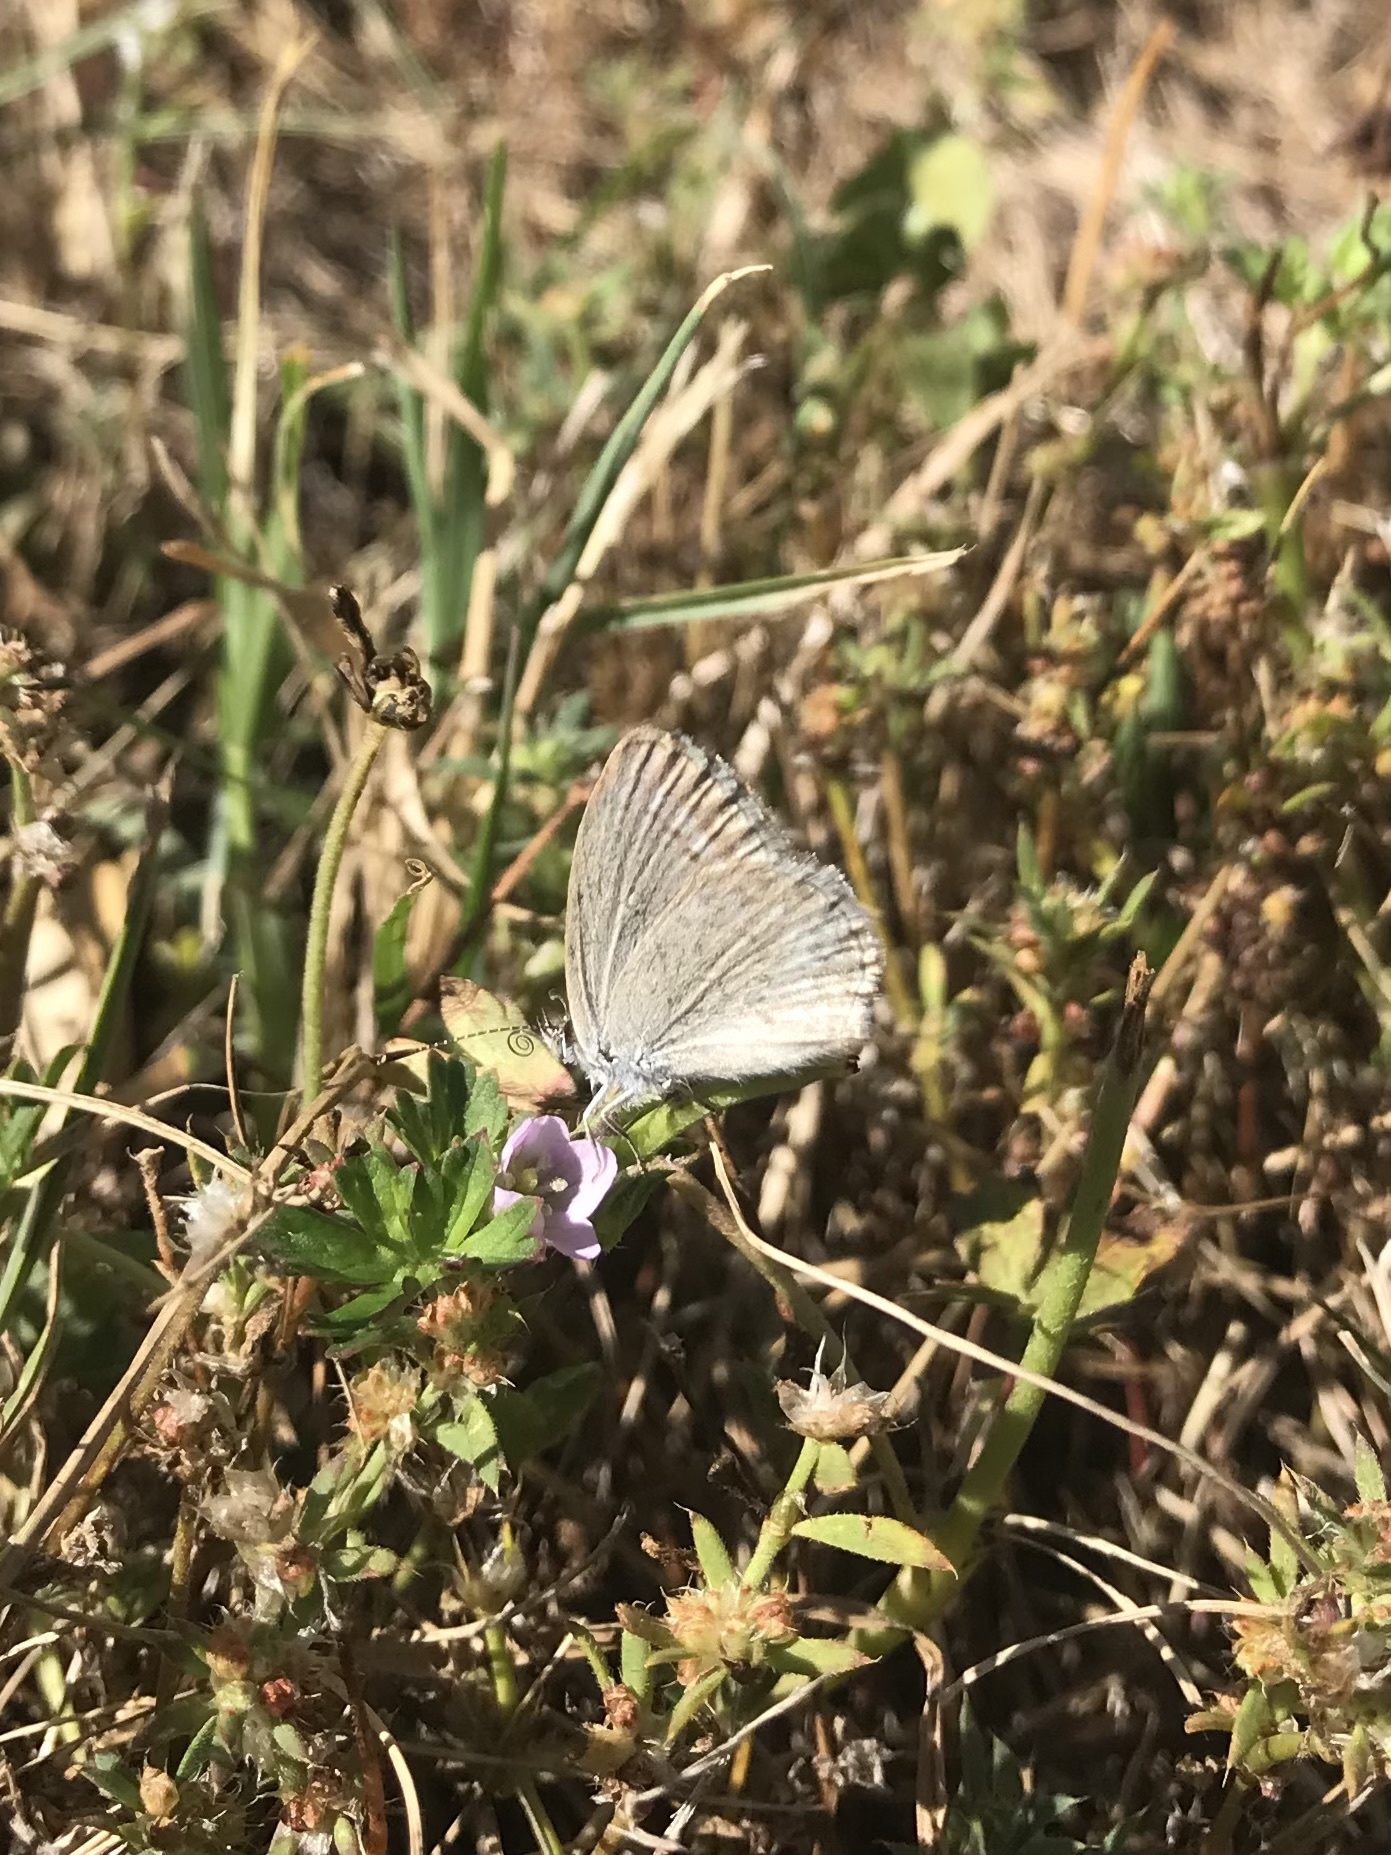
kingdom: Animalia
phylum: Arthropoda
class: Insecta
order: Lepidoptera
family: Lycaenidae
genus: Zizina
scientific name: Zizina labradus
